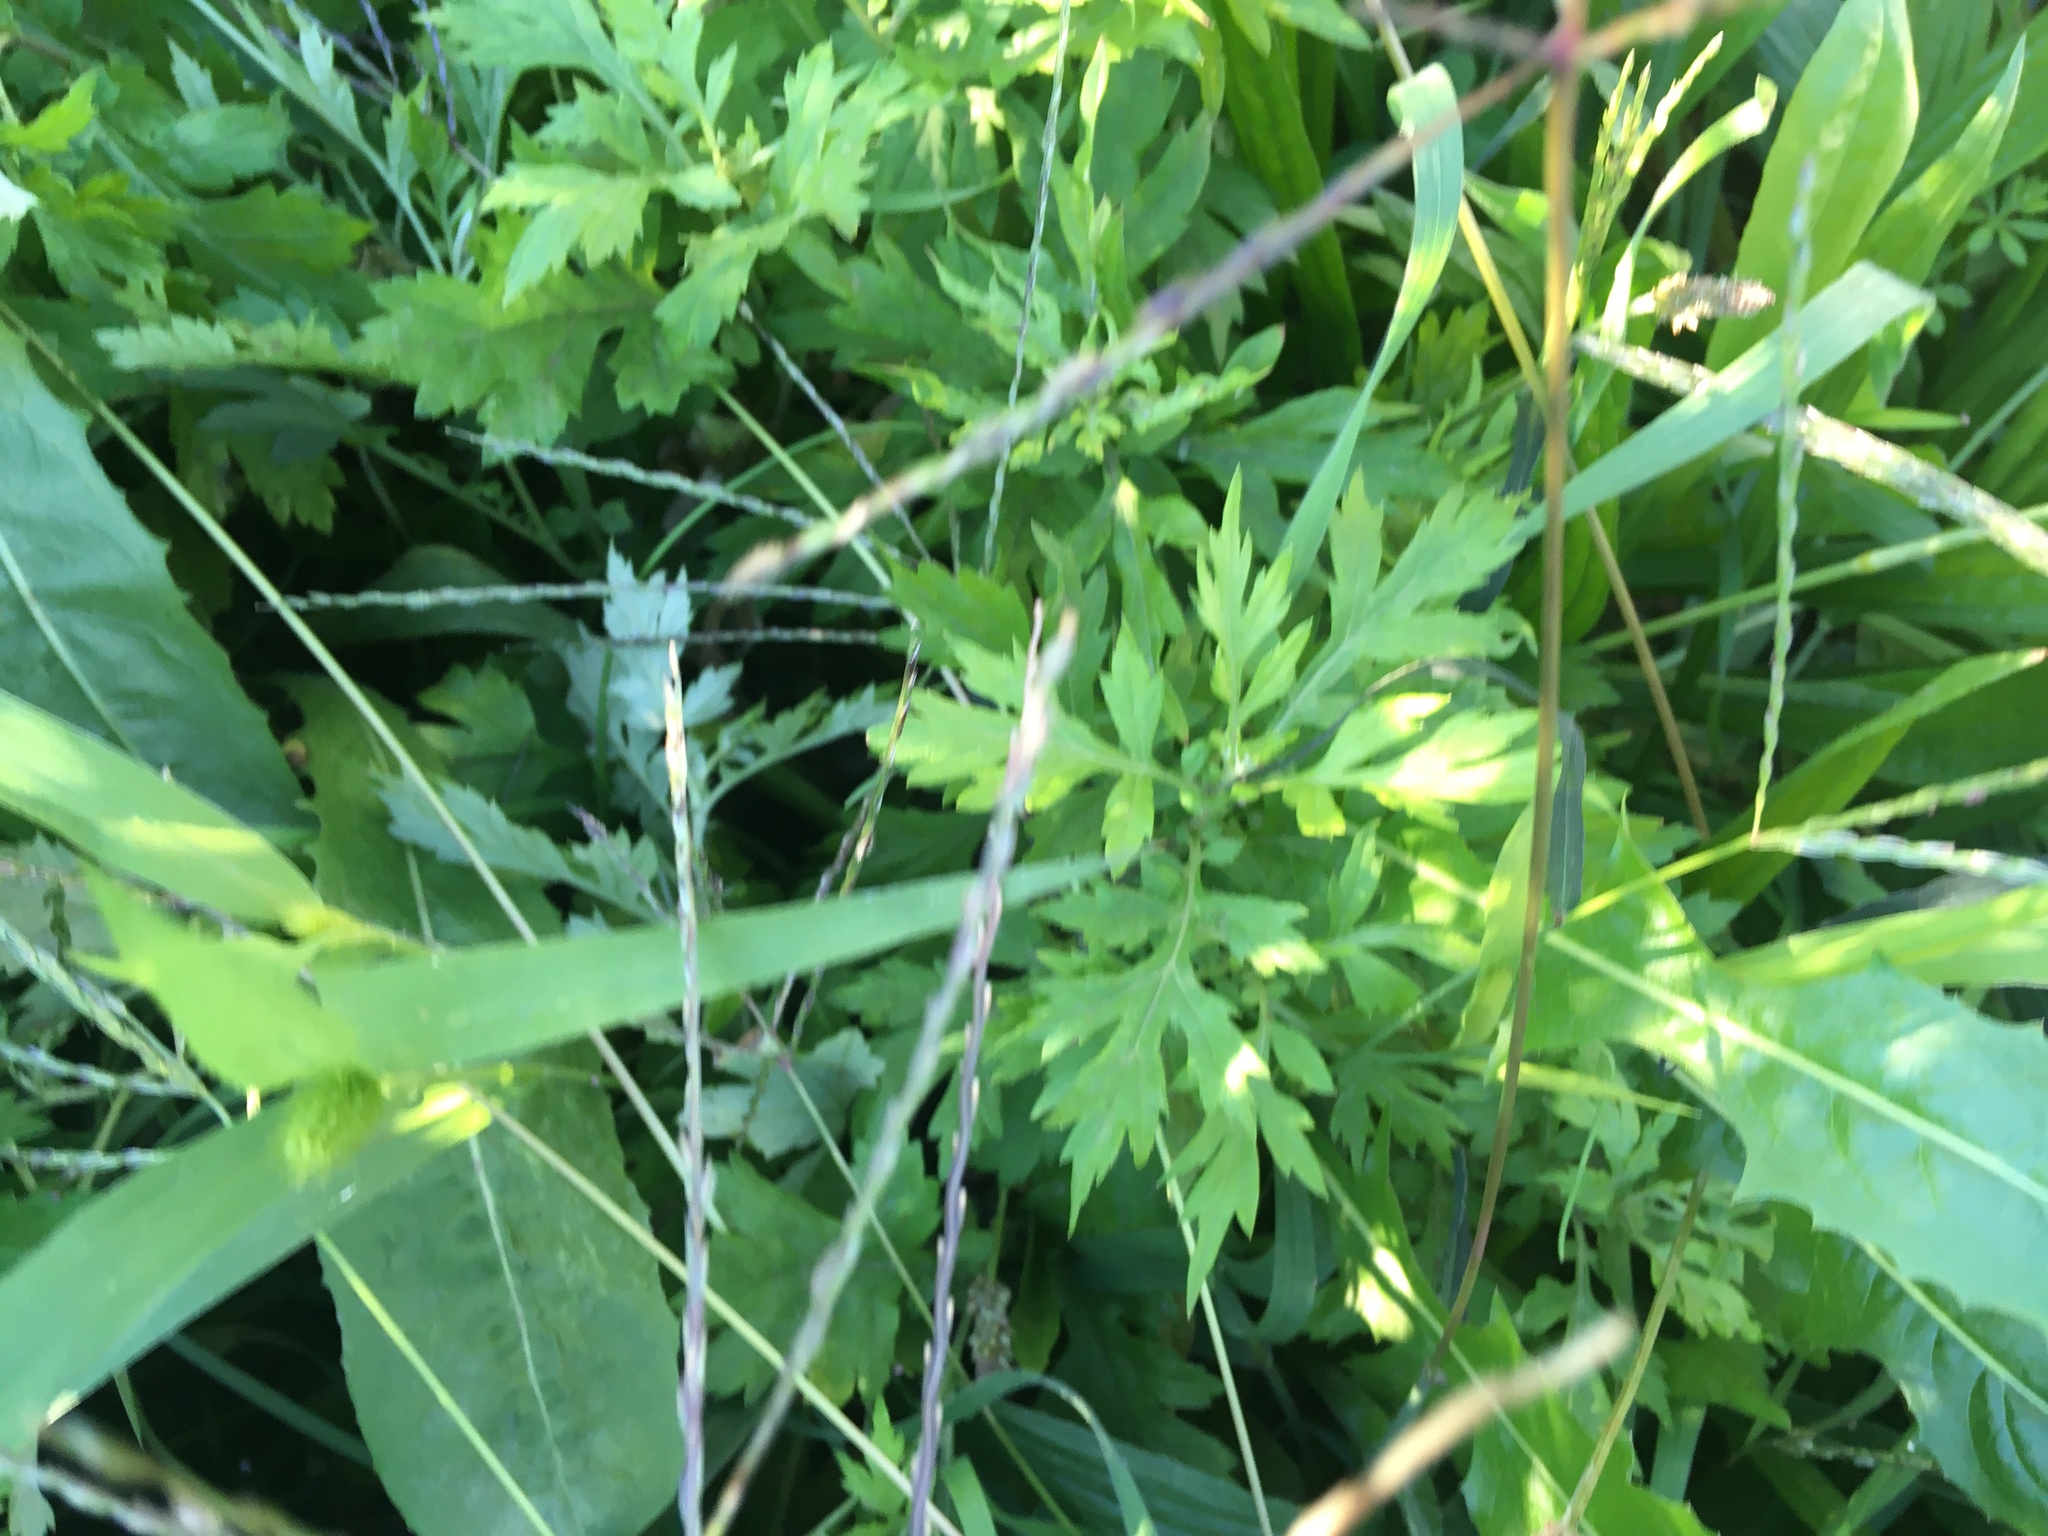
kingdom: Plantae
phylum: Tracheophyta
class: Magnoliopsida
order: Asterales
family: Asteraceae
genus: Artemisia
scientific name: Artemisia vulgaris
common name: Mugwort
